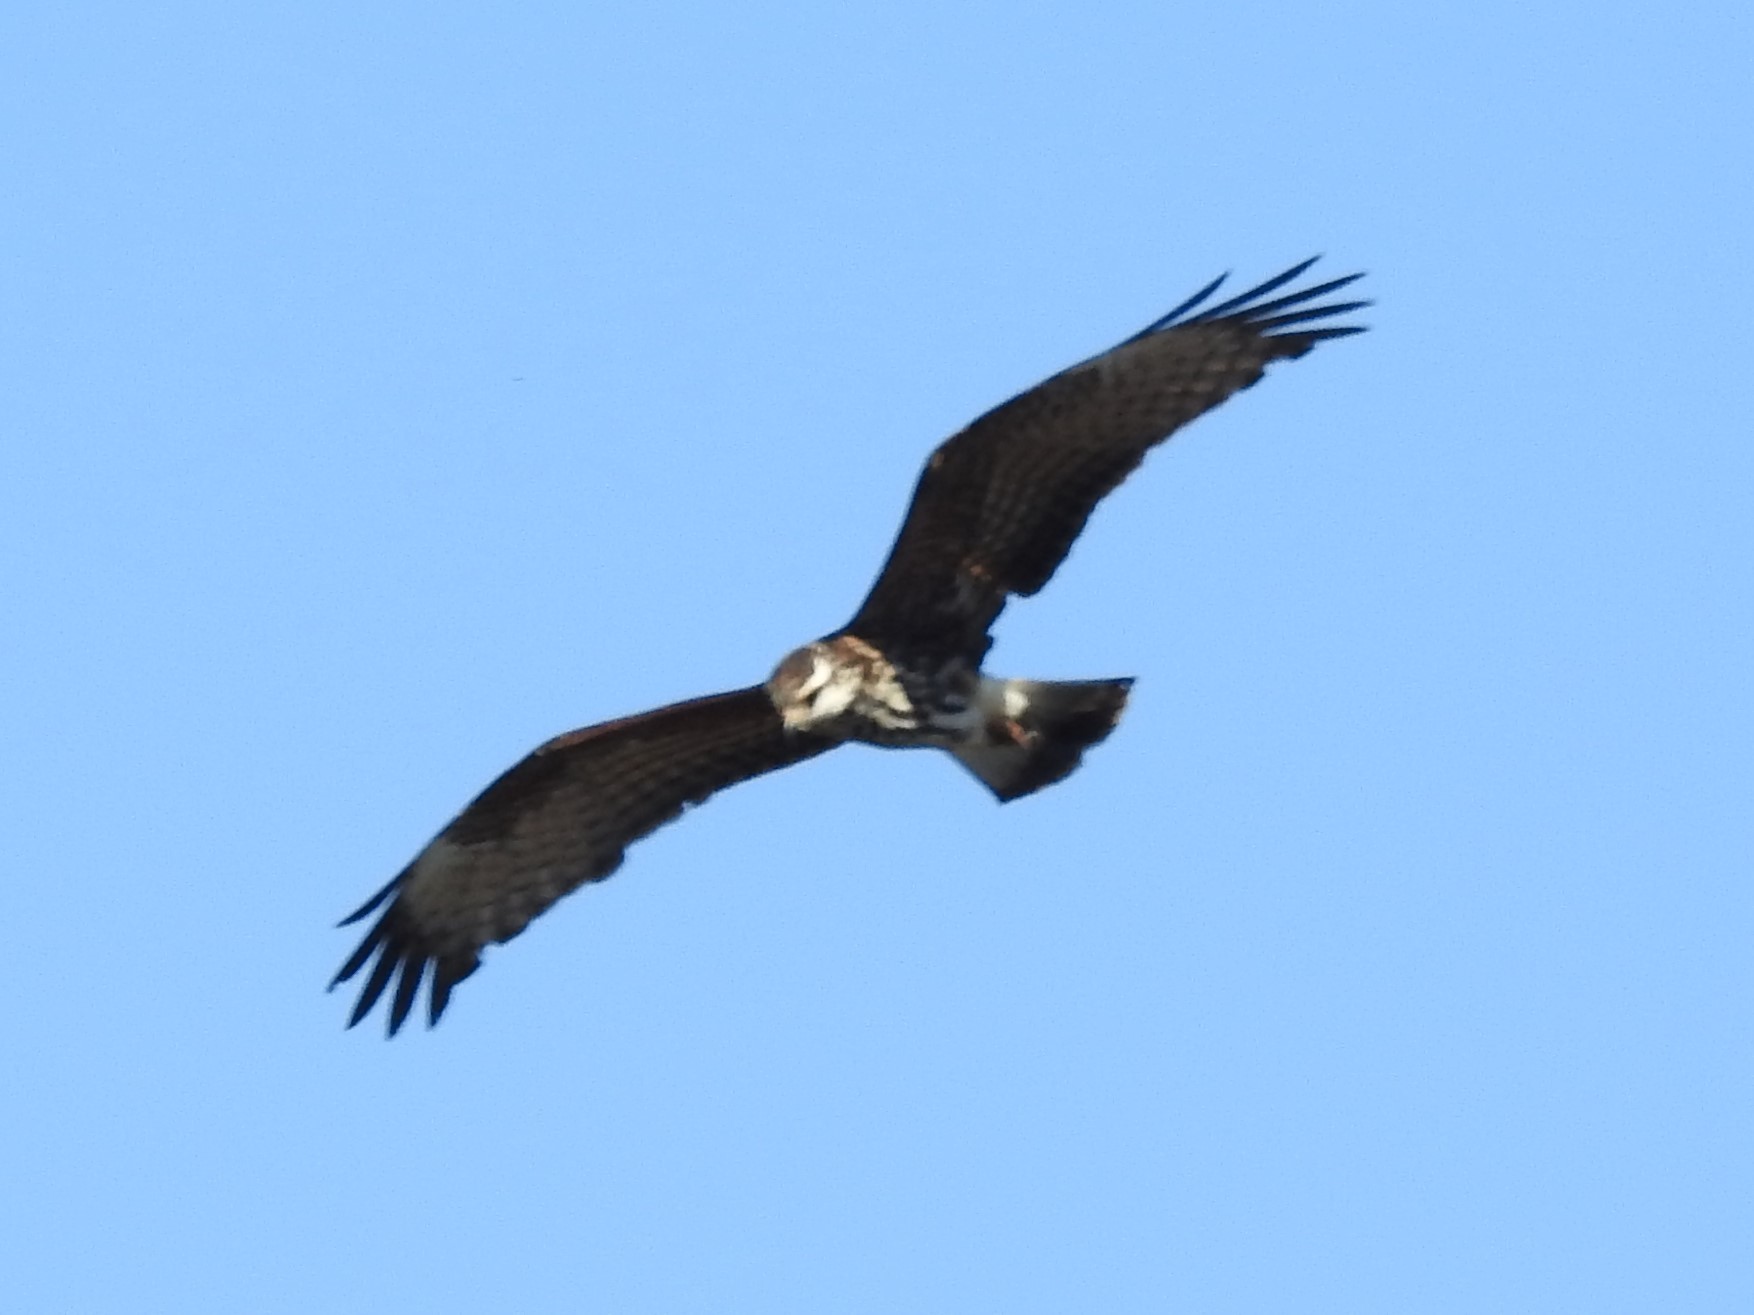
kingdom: Animalia
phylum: Chordata
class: Aves
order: Accipitriformes
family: Accipitridae
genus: Rostrhamus
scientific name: Rostrhamus sociabilis
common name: Snail kite
